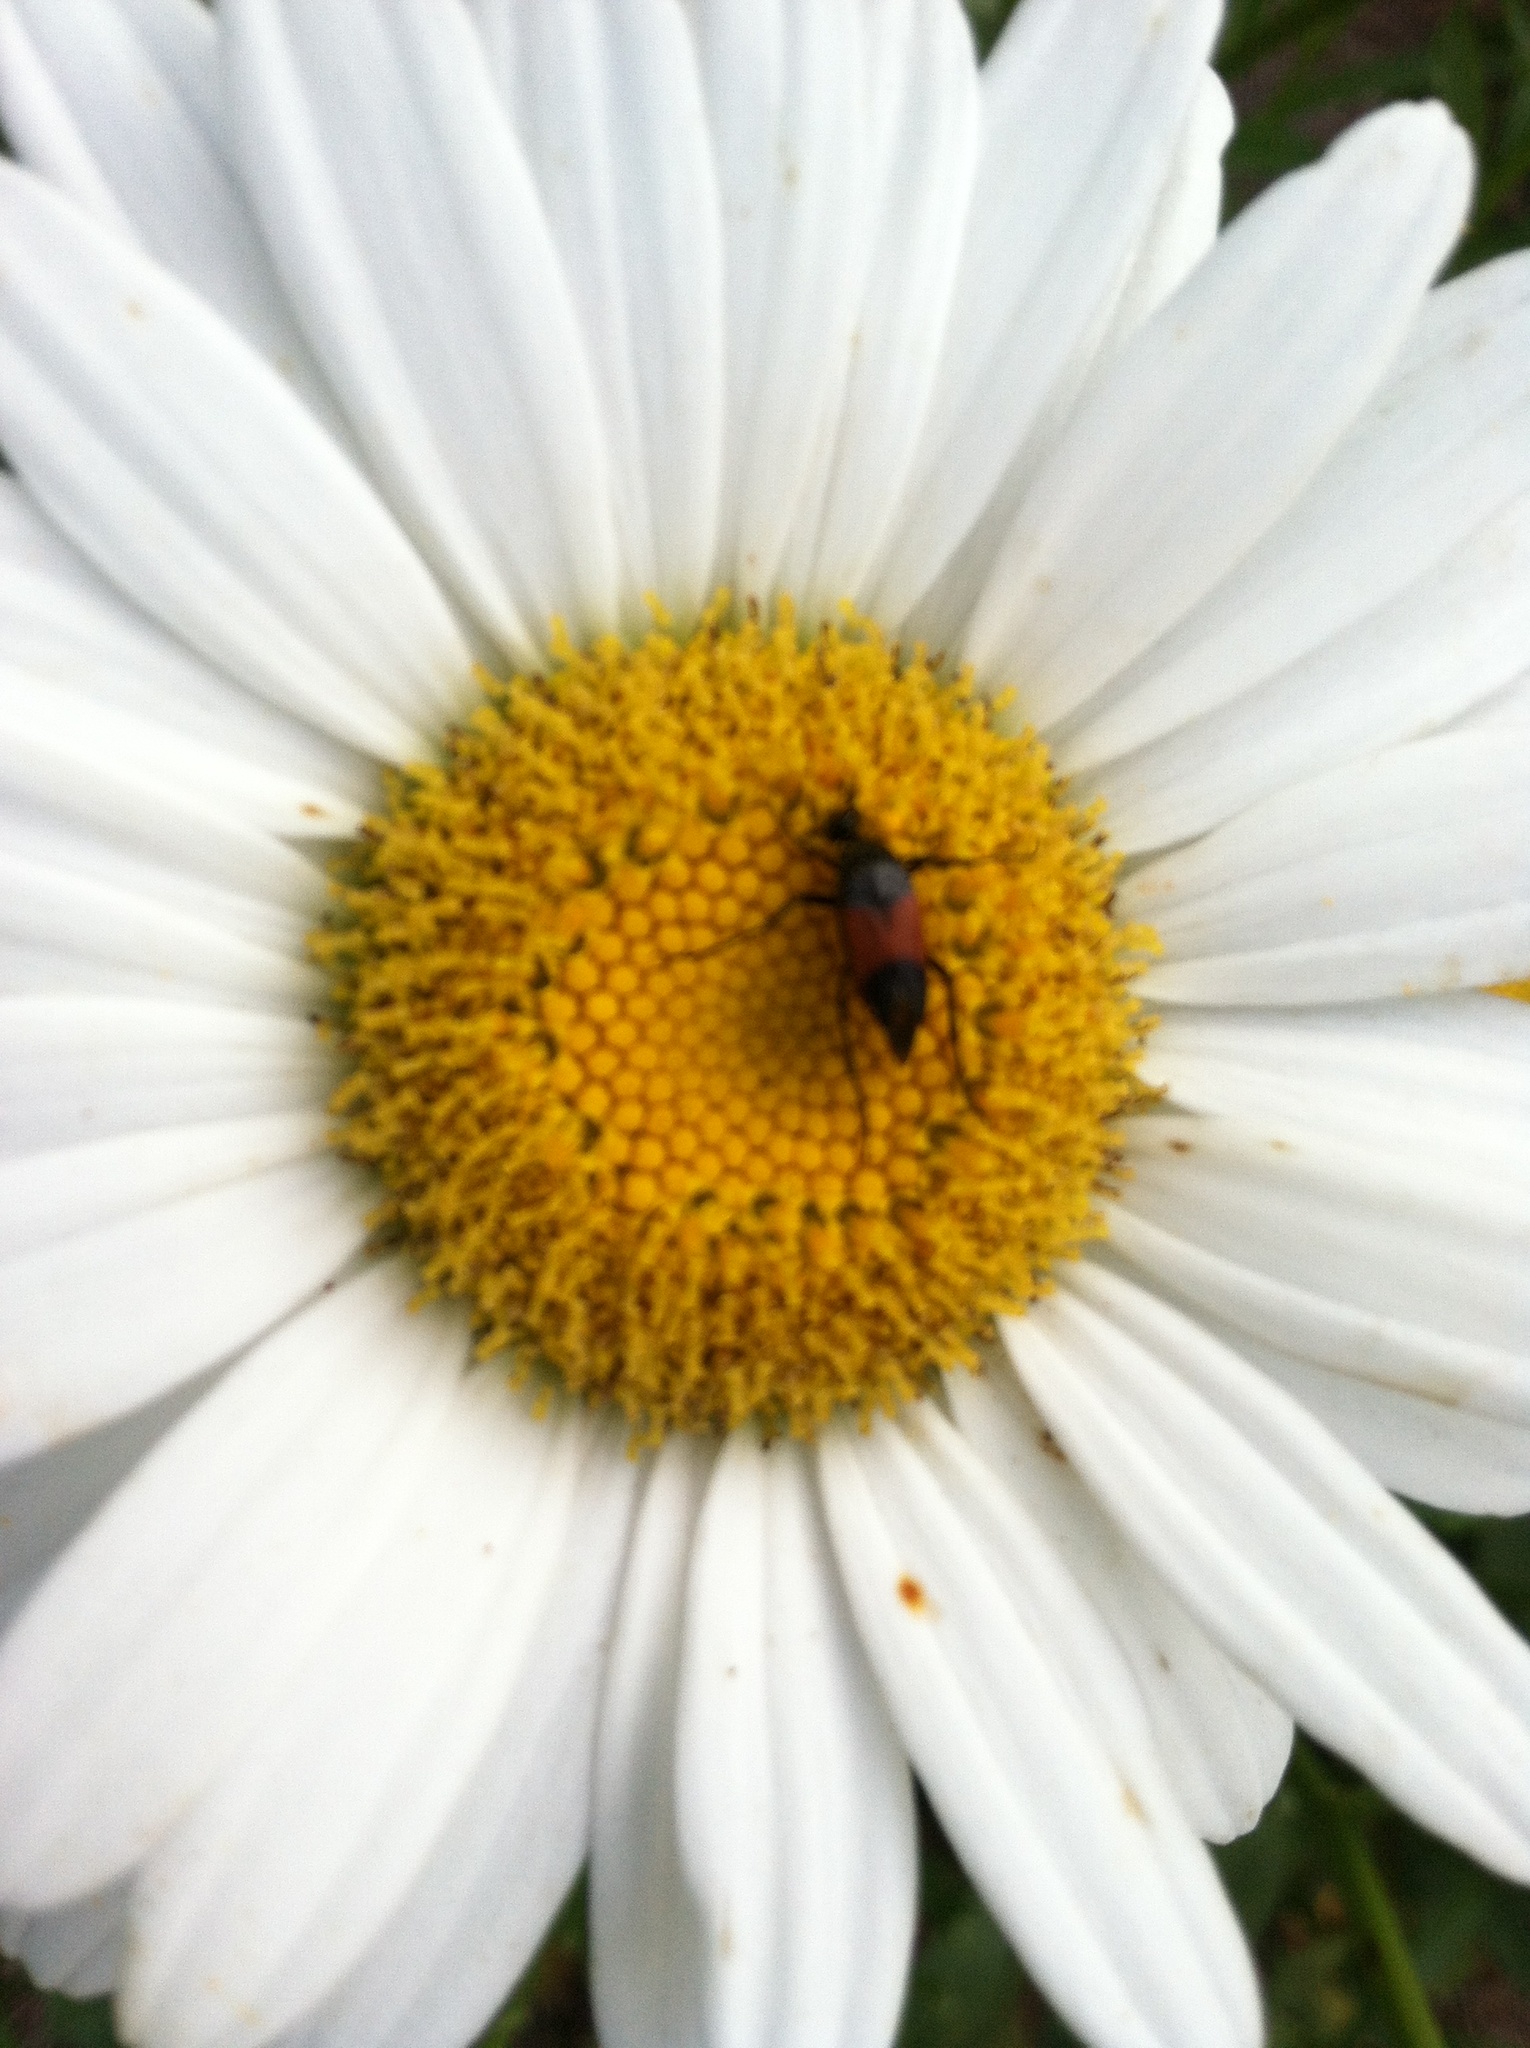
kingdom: Animalia
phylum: Arthropoda
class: Insecta
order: Coleoptera
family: Ripiphoridae
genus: Macrosiagon
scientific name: Macrosiagon cruentum
